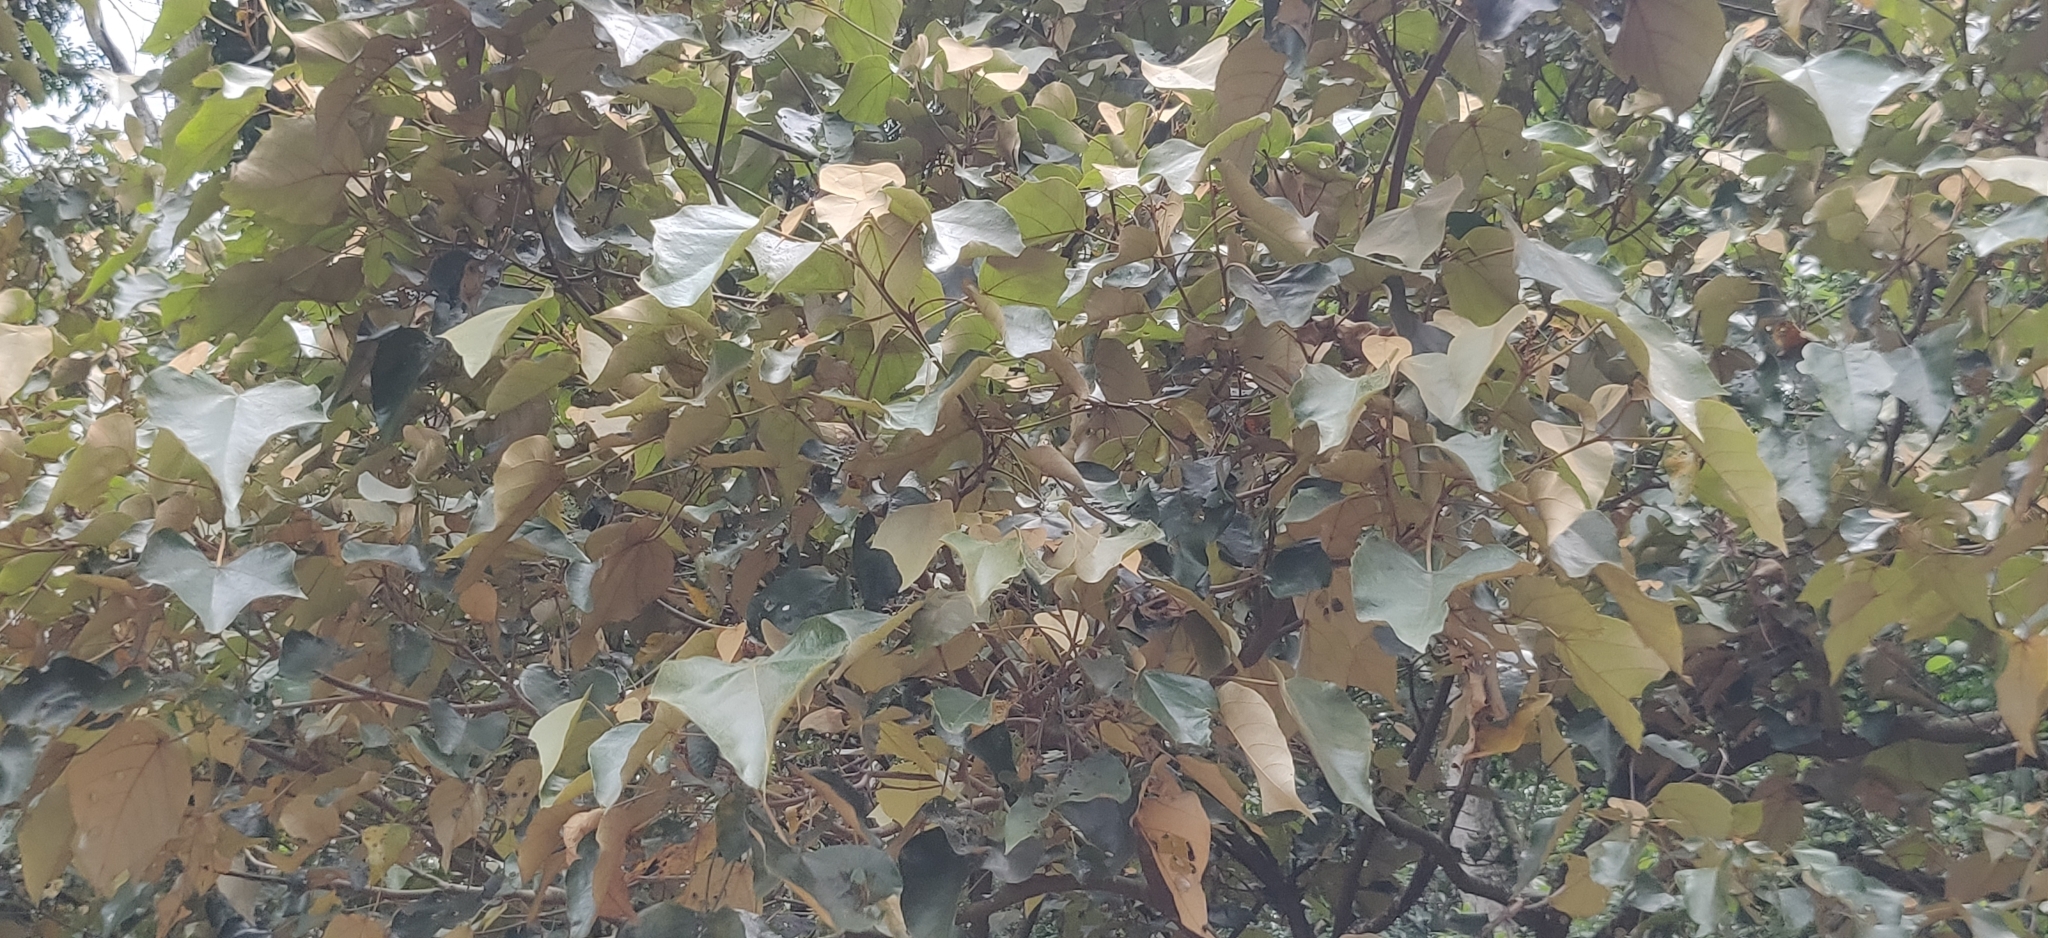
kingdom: Plantae
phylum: Tracheophyta
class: Magnoliopsida
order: Malpighiales
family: Euphorbiaceae
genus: Mallotus
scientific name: Mallotus tetracoccus
